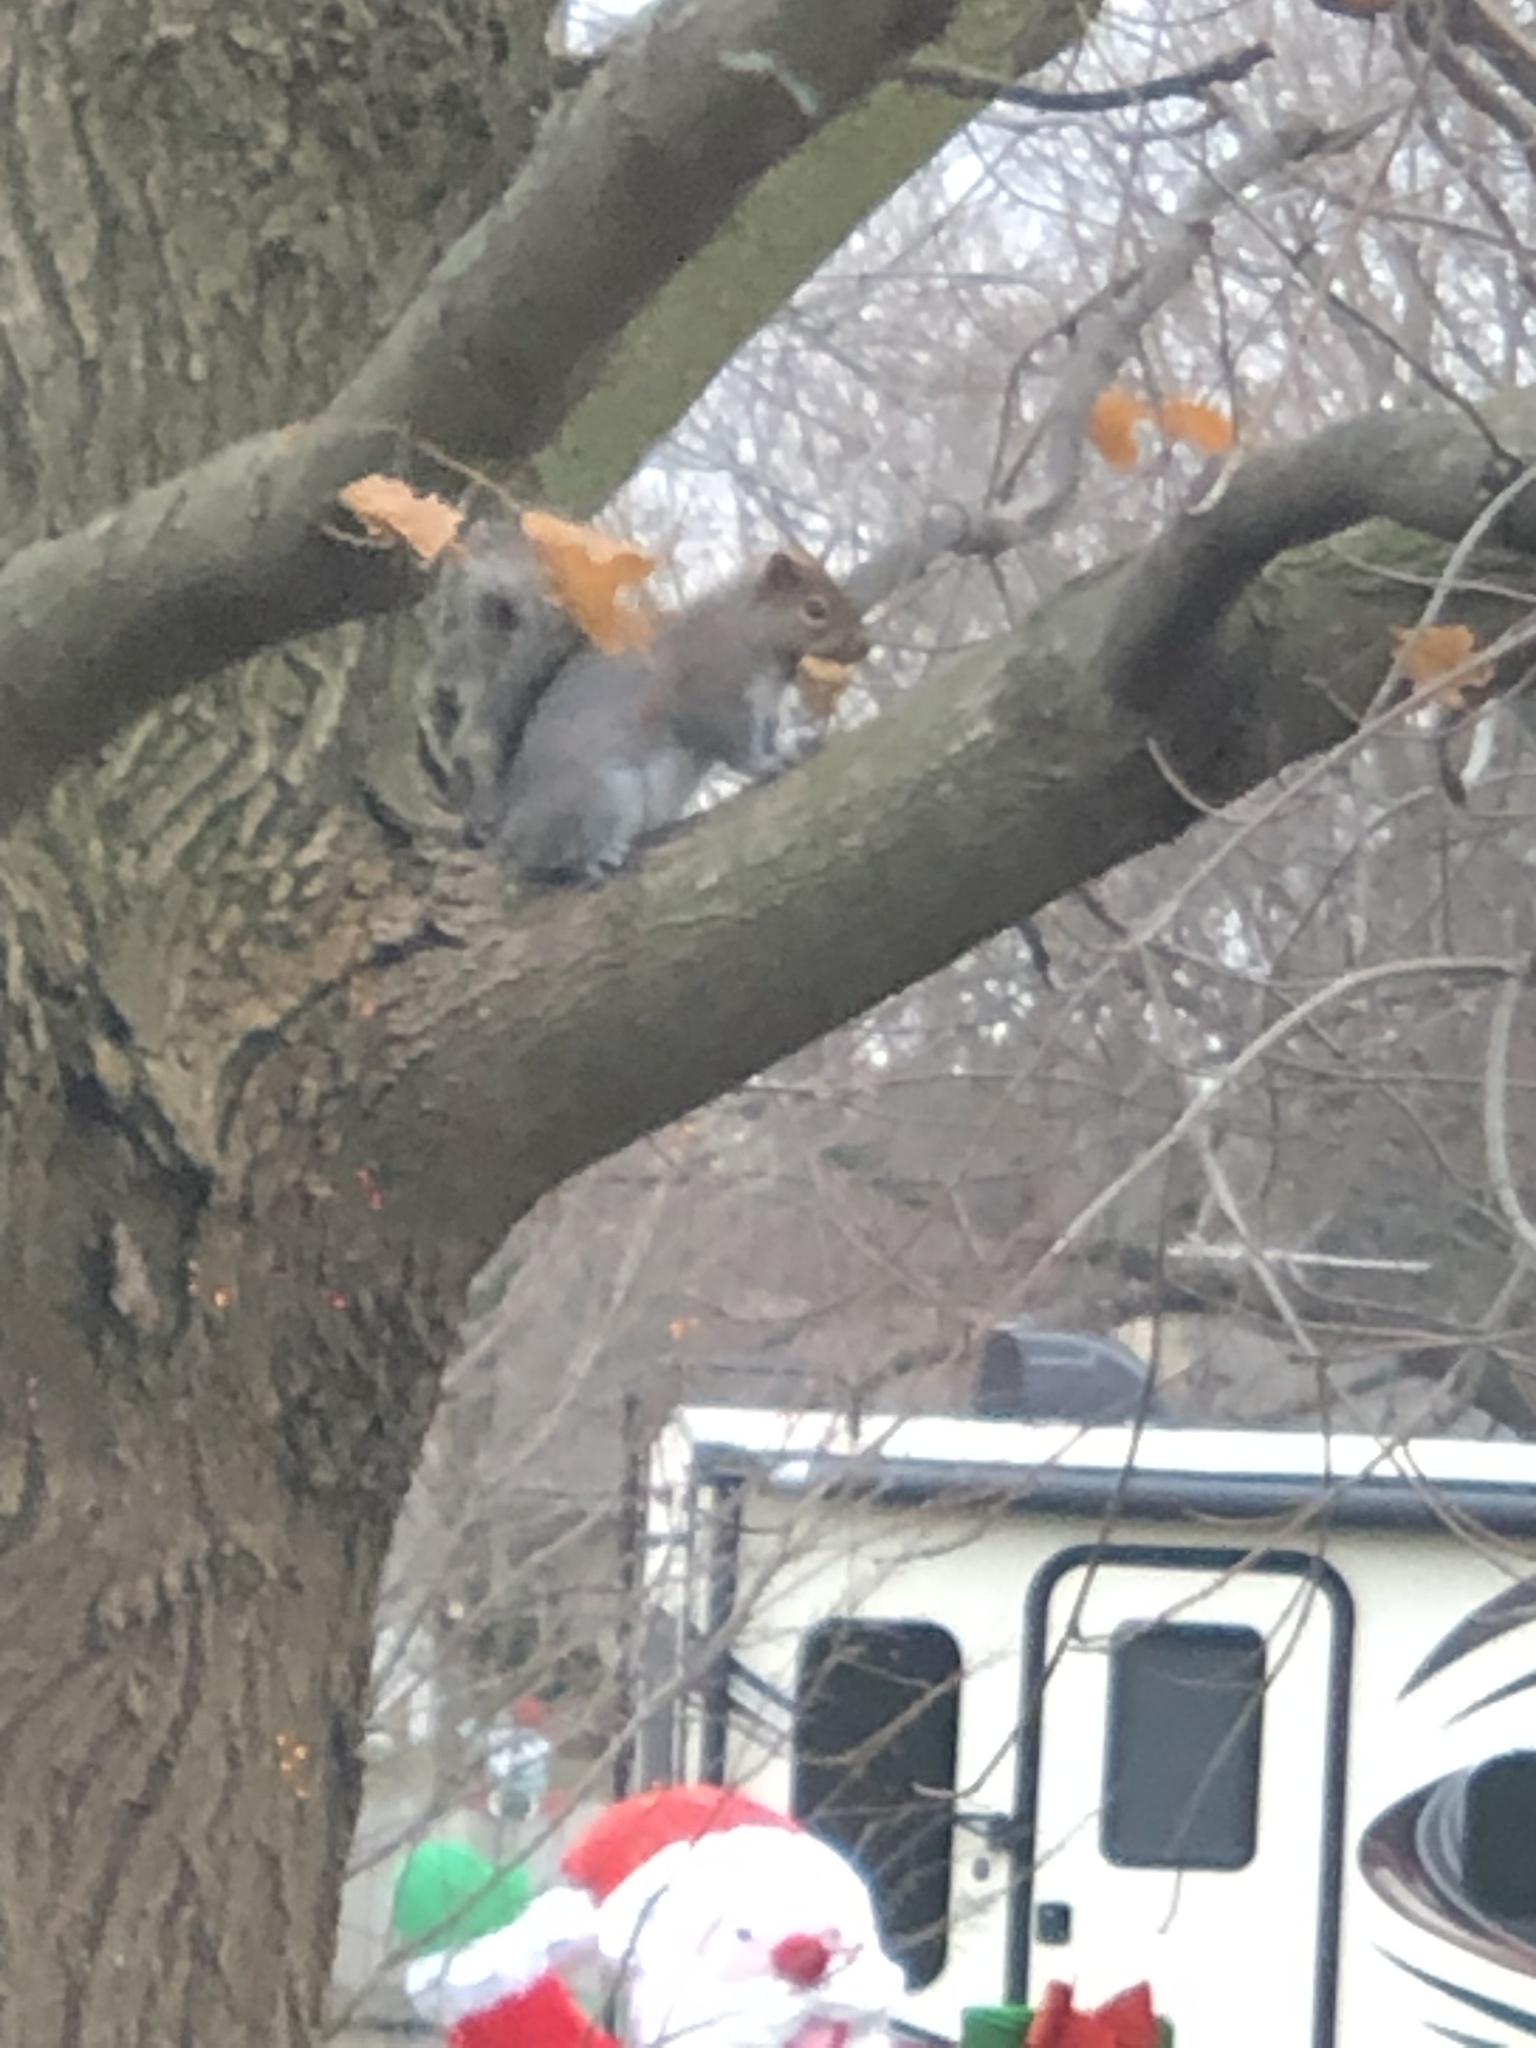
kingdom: Animalia
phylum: Chordata
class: Mammalia
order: Rodentia
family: Sciuridae
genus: Sciurus
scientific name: Sciurus carolinensis
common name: Eastern gray squirrel
